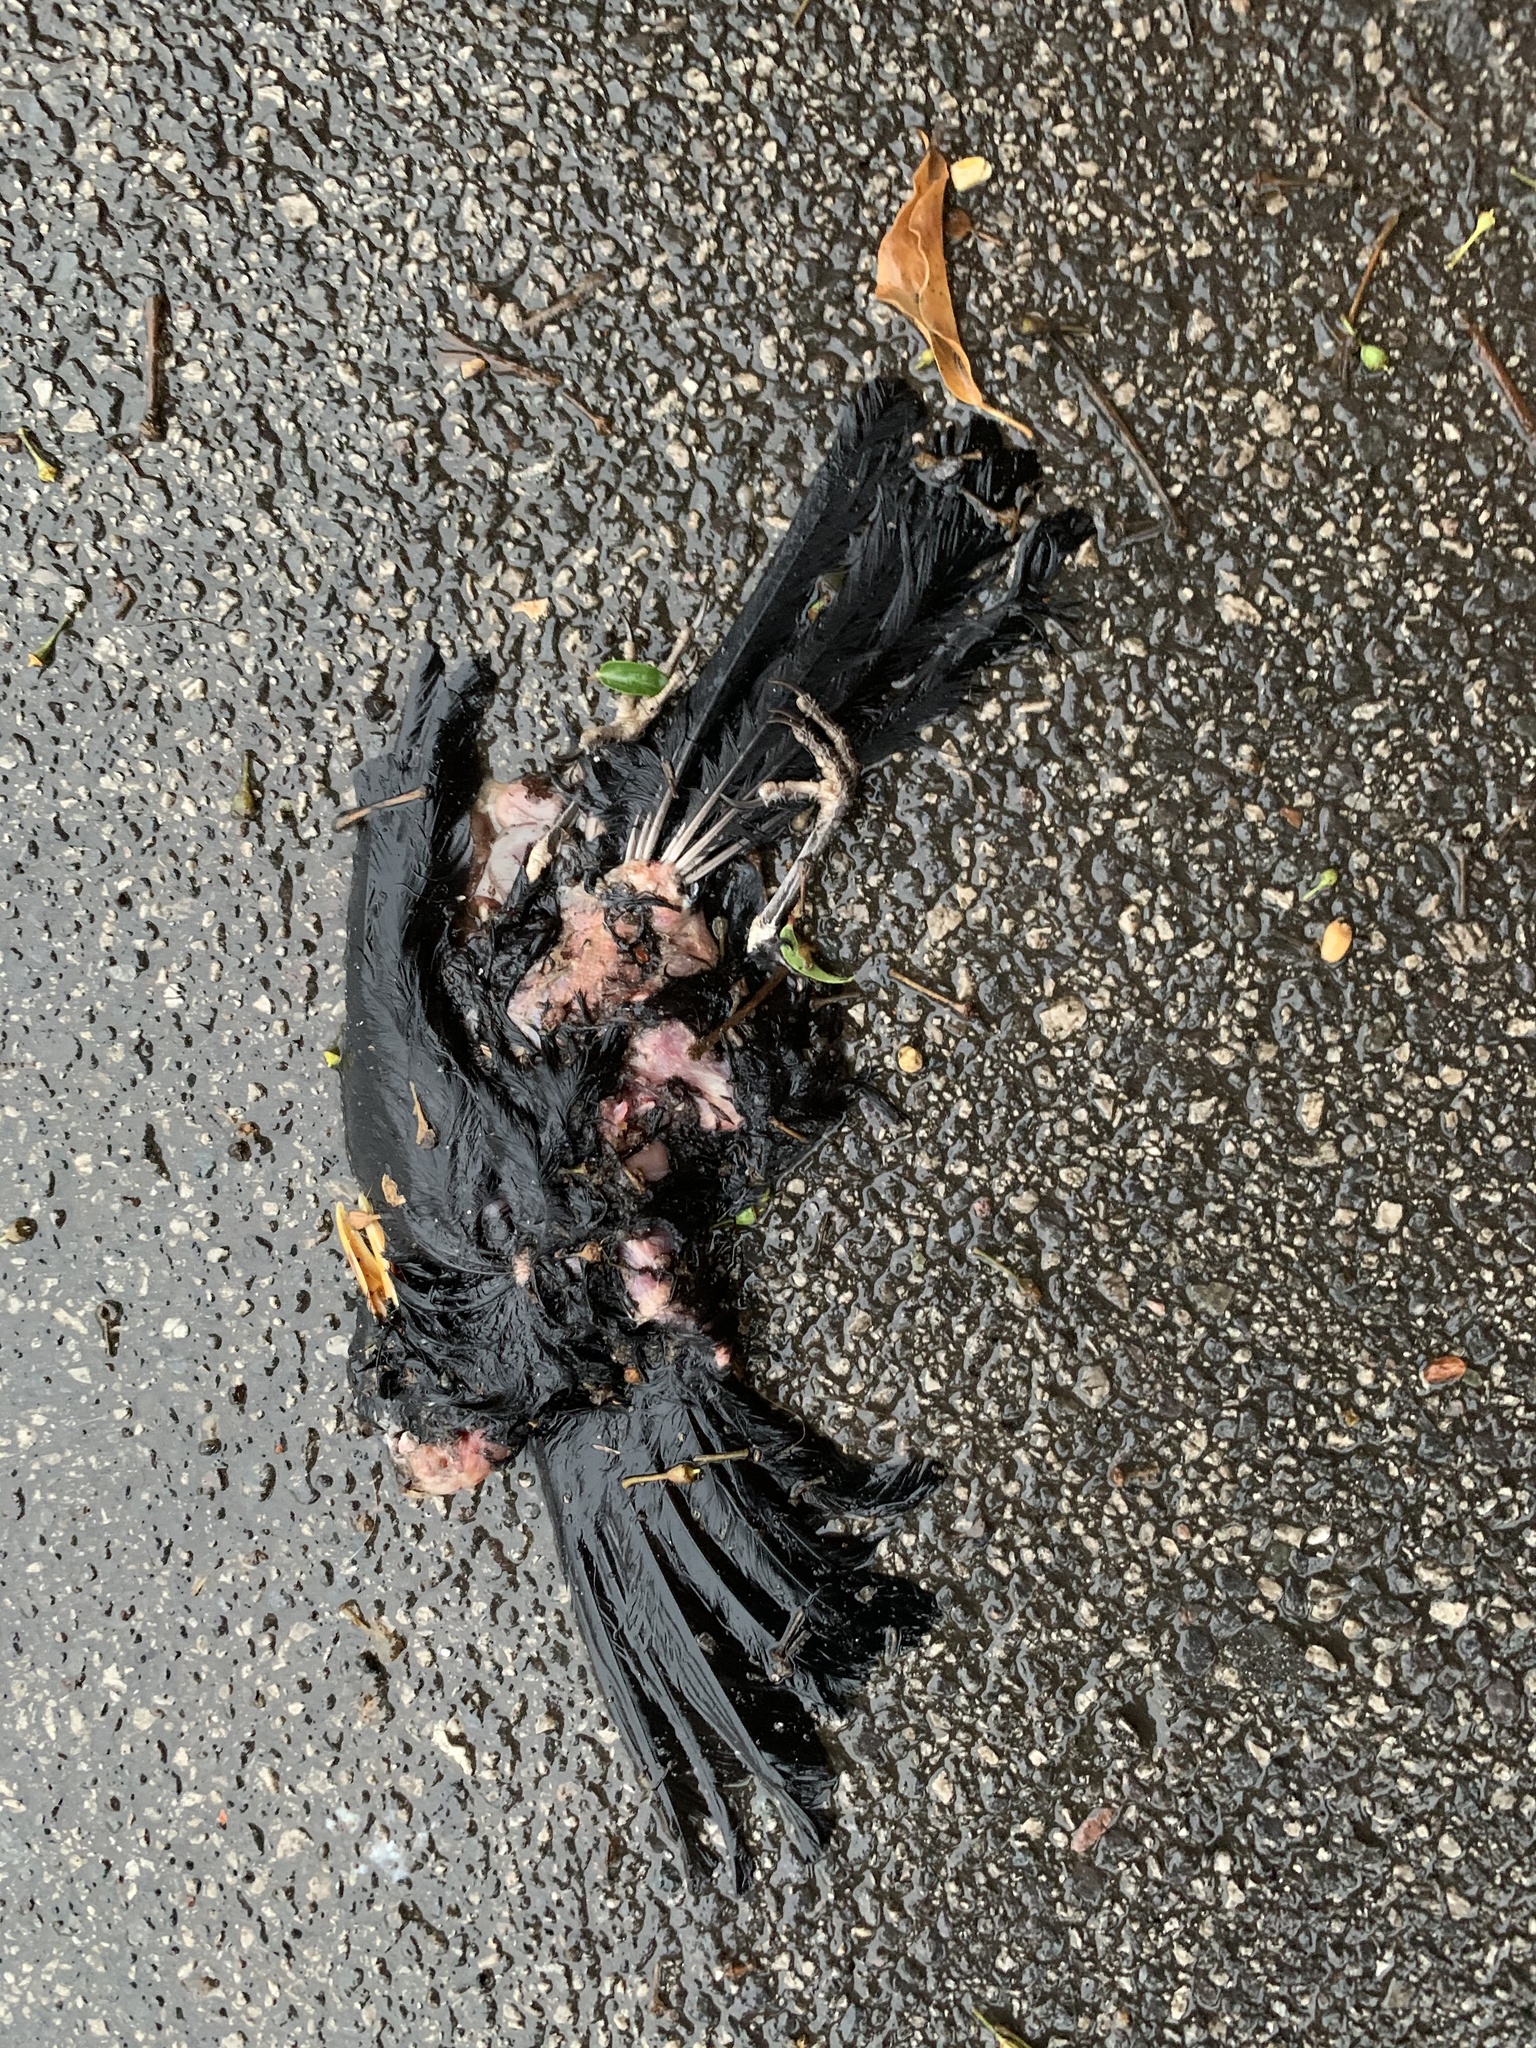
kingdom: Animalia
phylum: Chordata
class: Aves
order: Passeriformes
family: Turdidae
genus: Turdus
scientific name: Turdus merula
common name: Common blackbird
